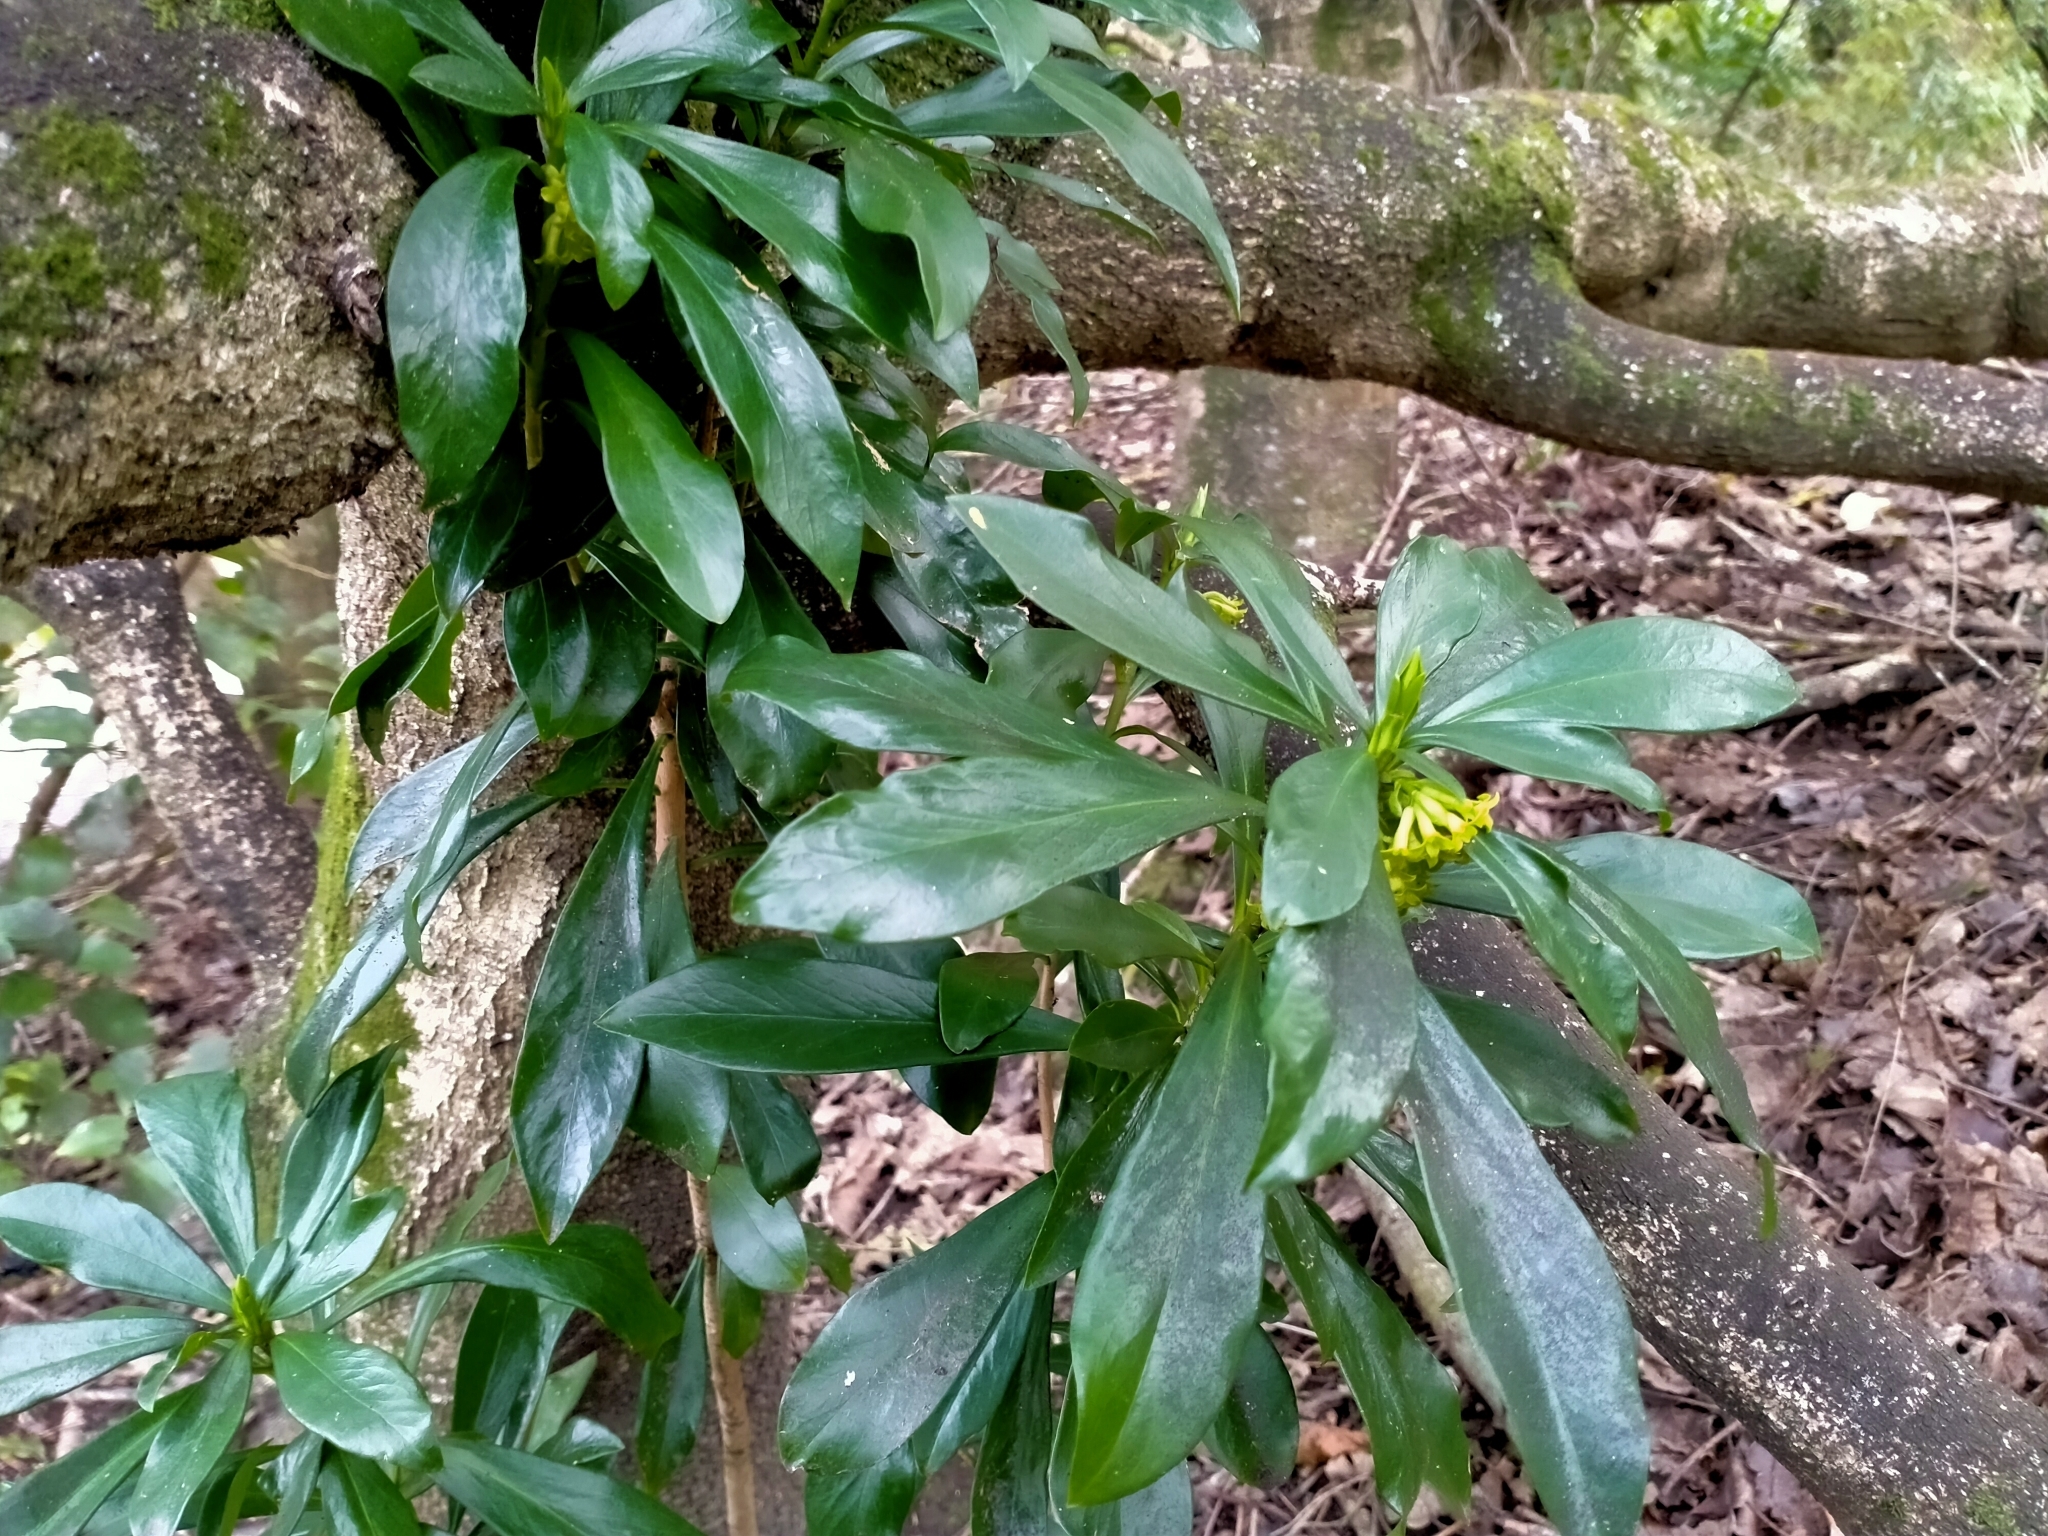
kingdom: Plantae
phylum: Tracheophyta
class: Magnoliopsida
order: Malvales
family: Thymelaeaceae
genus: Daphne
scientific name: Daphne laureola
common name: Spurge-laurel
